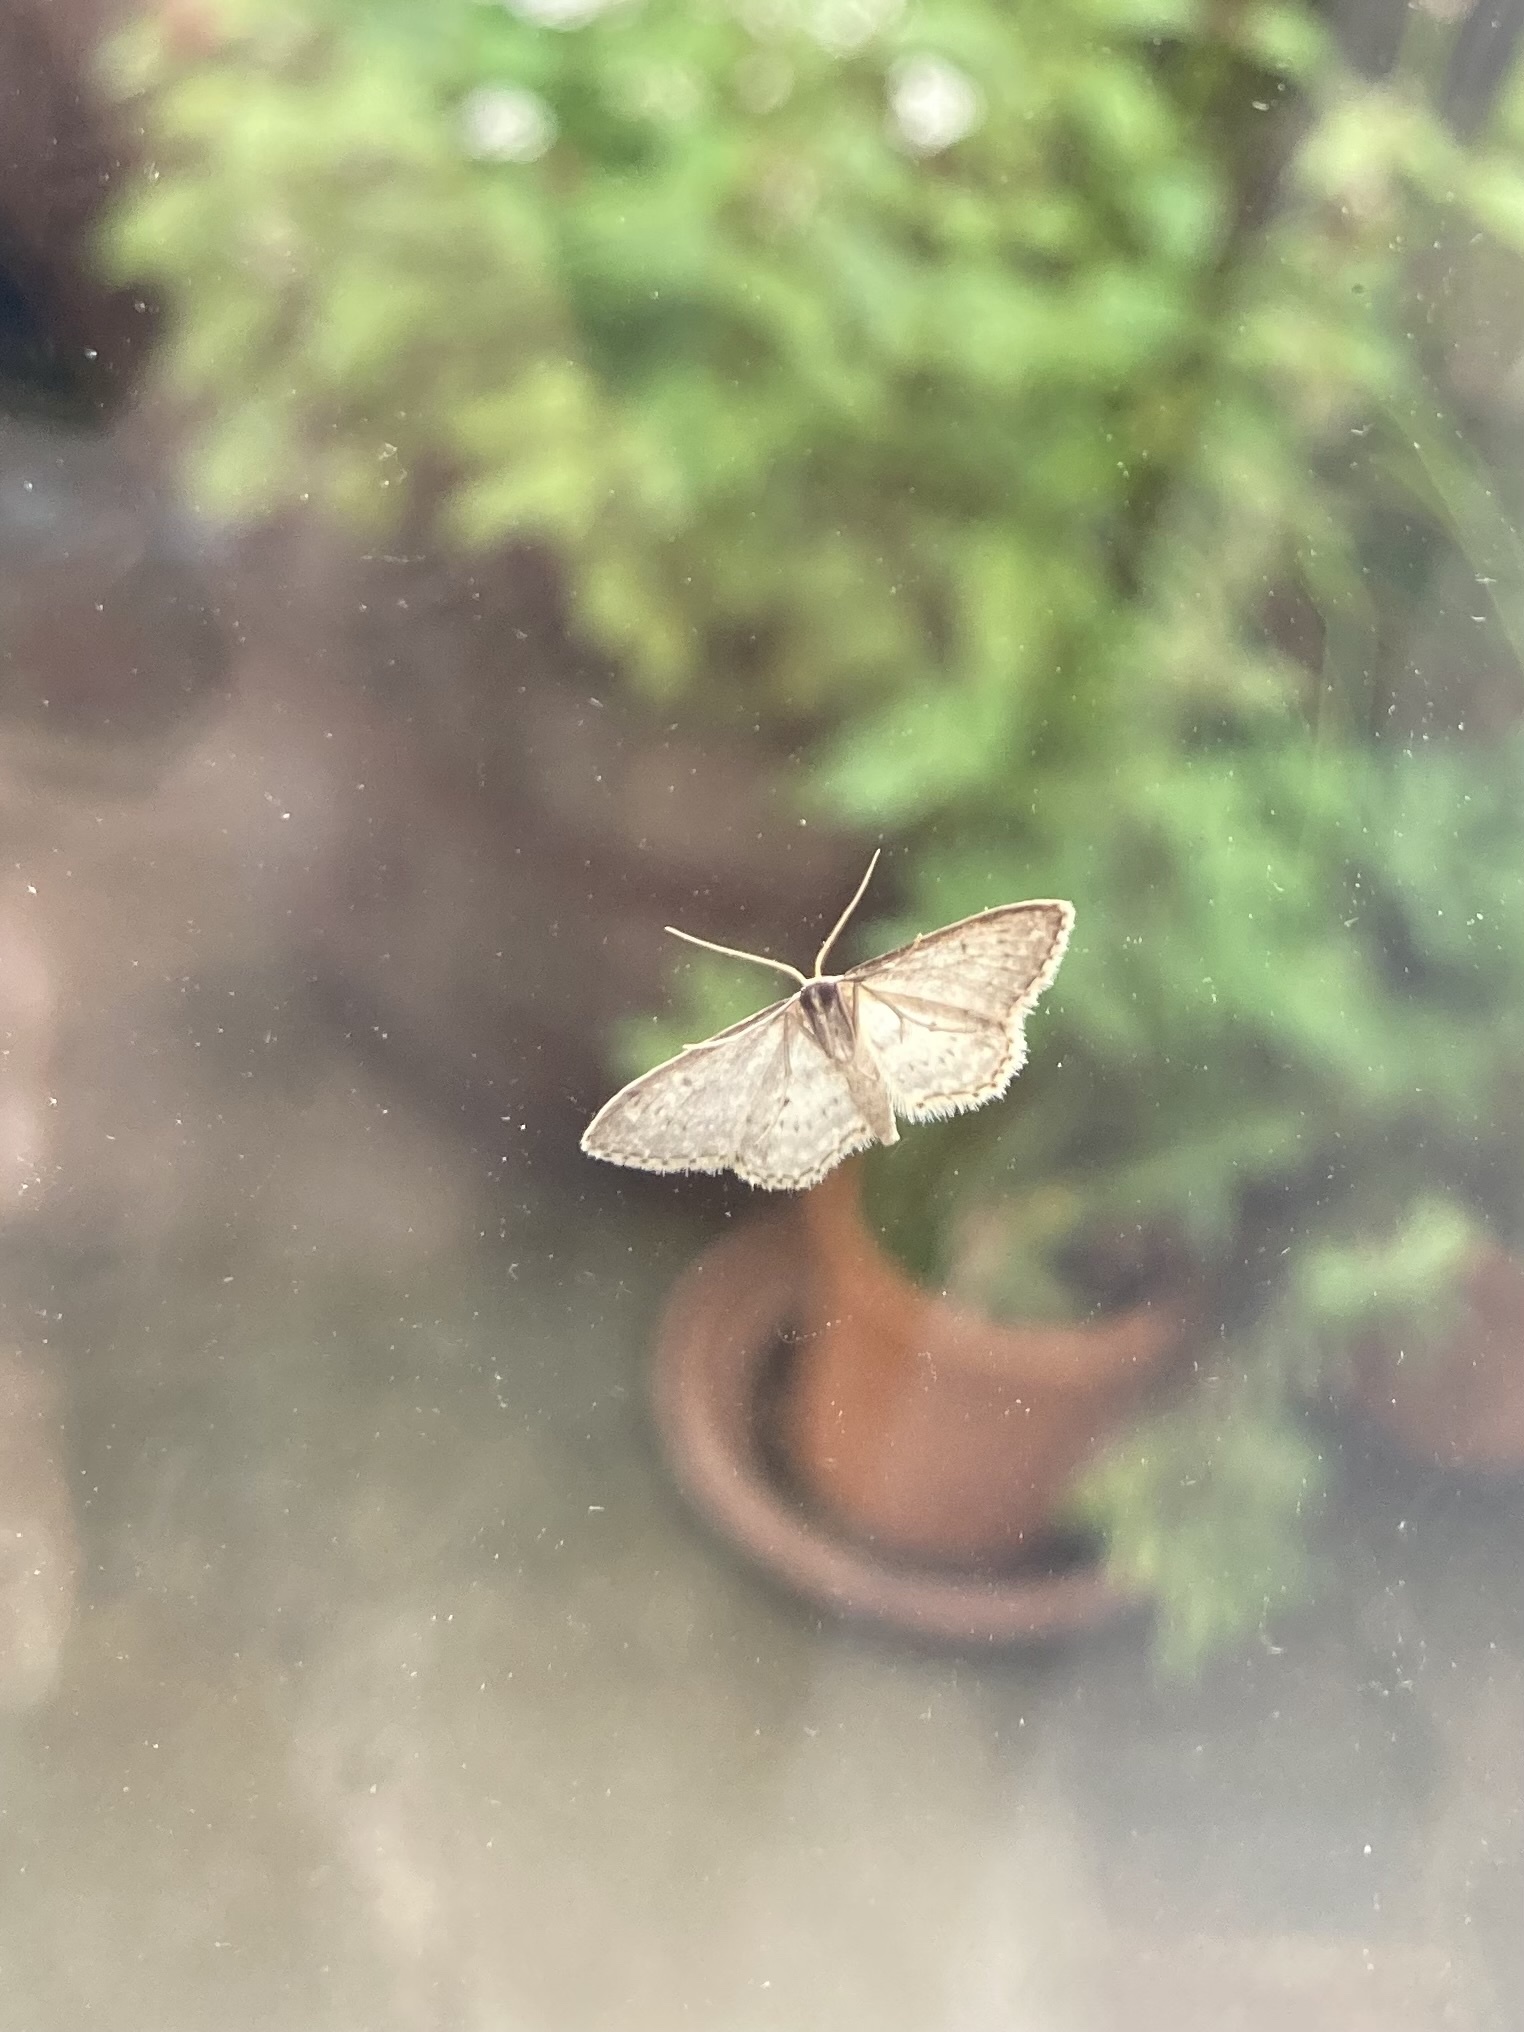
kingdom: Animalia
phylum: Arthropoda
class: Insecta
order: Lepidoptera
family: Geometridae
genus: Idaea
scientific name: Idaea seriata
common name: Small dusty wave
